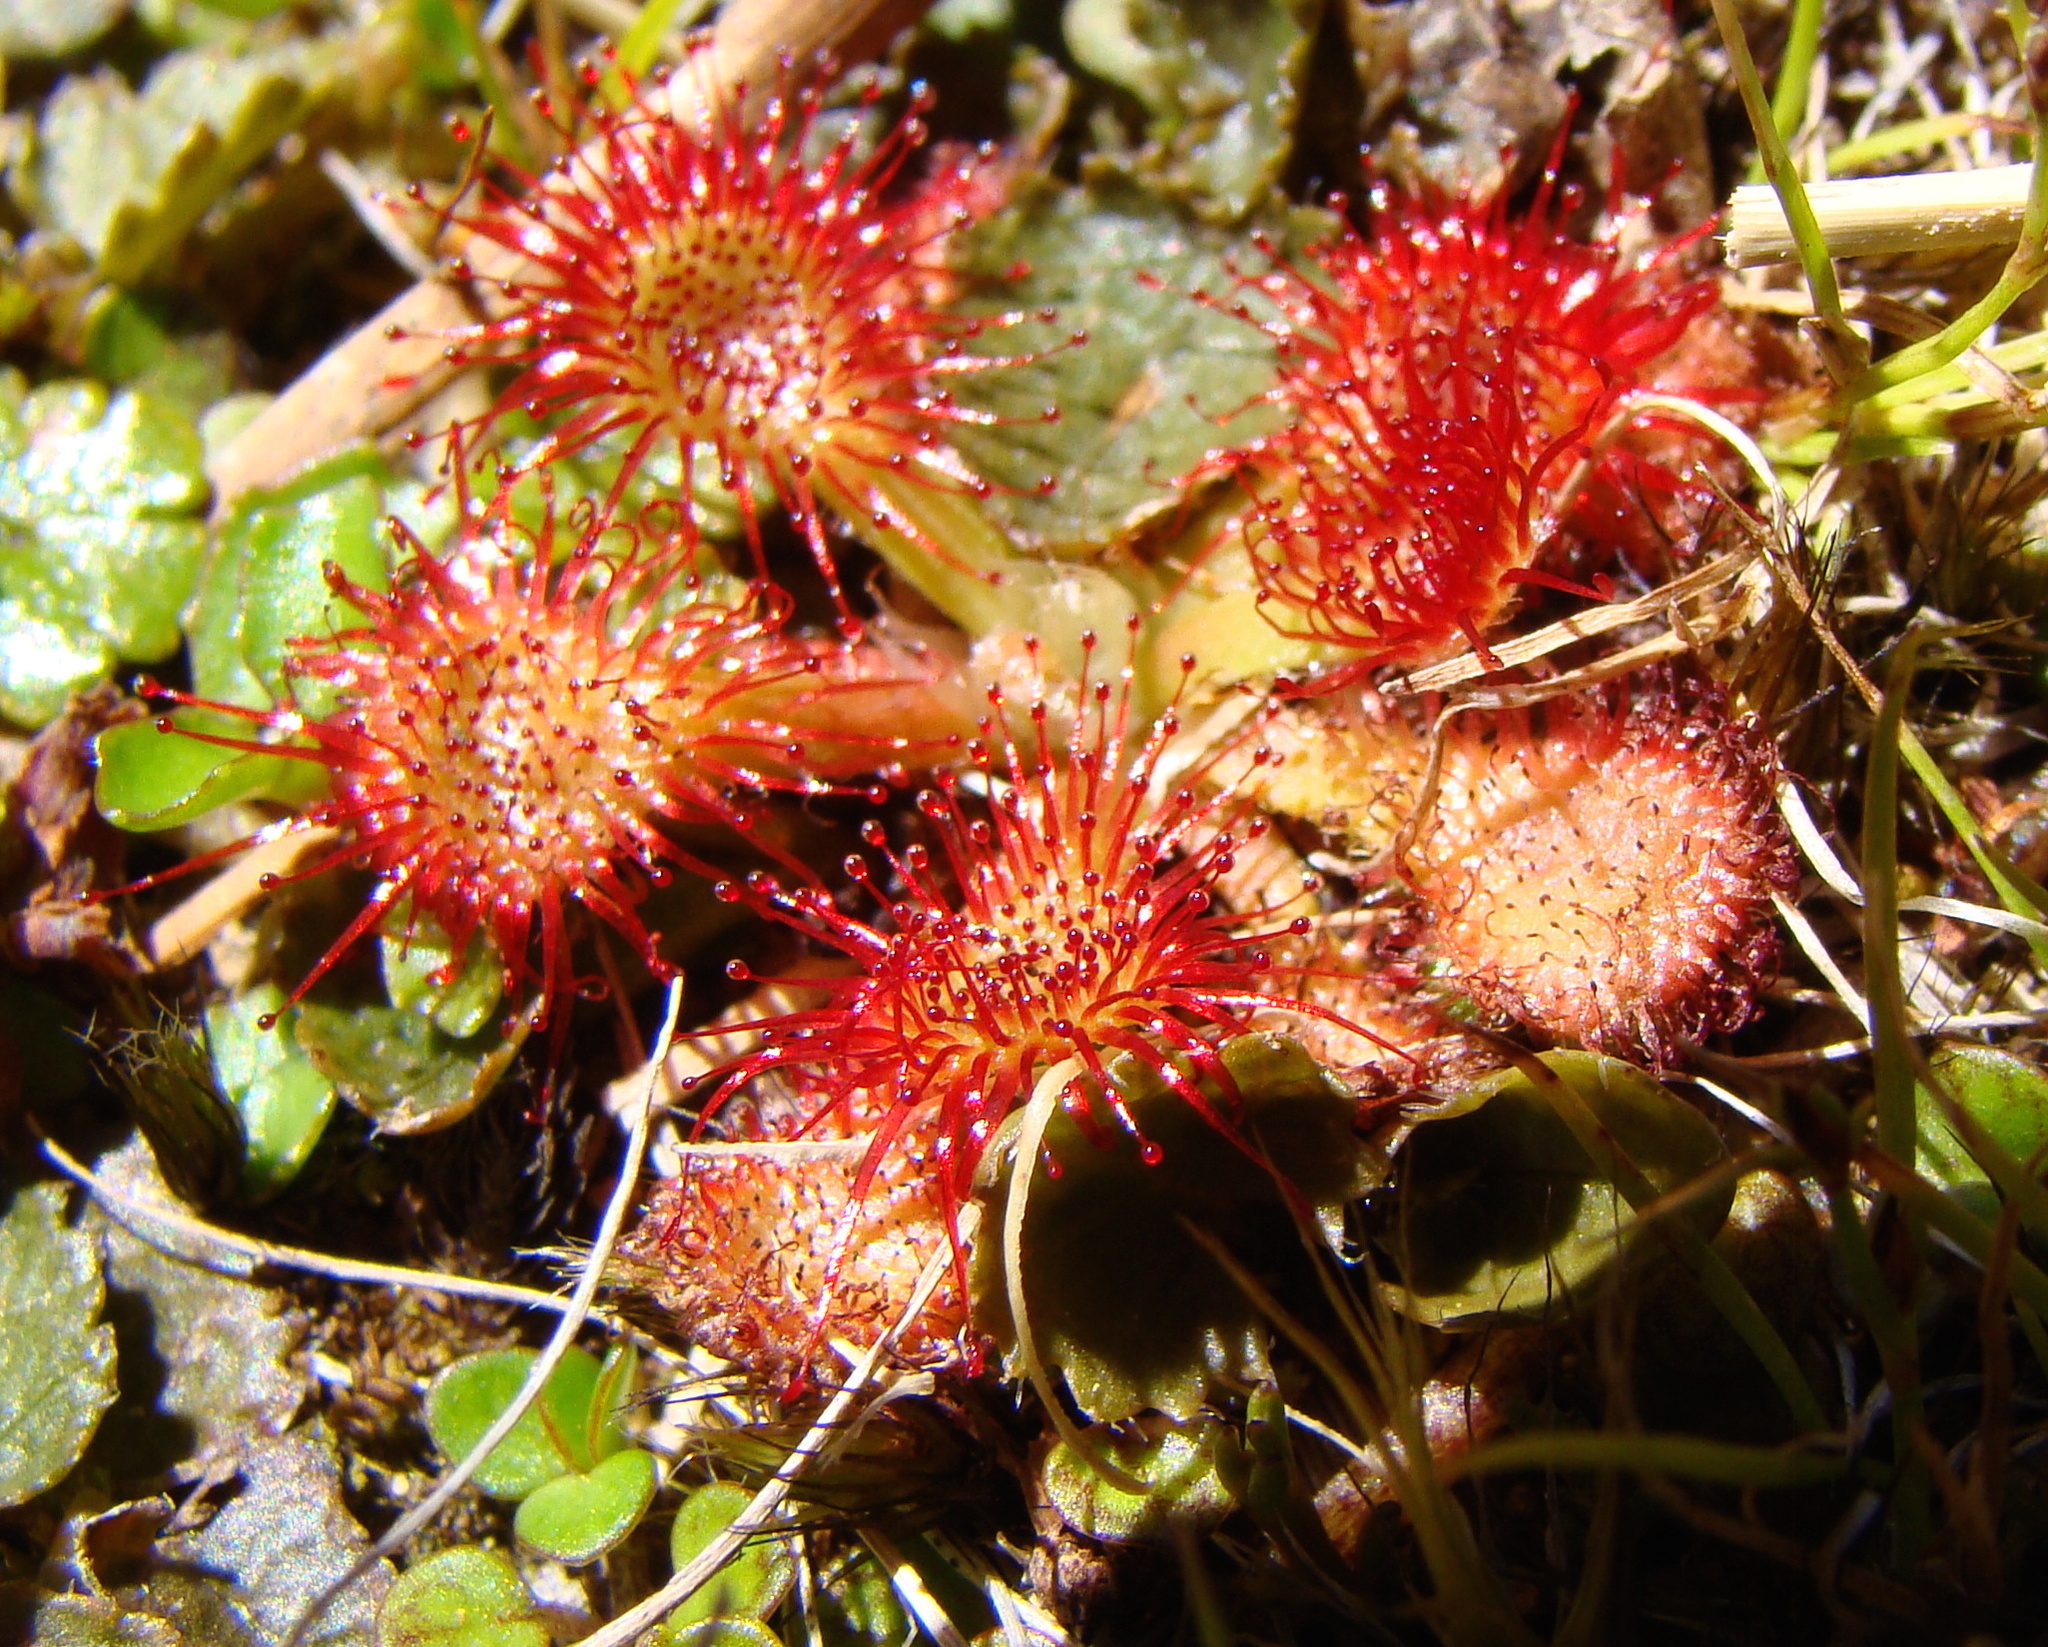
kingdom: Plantae
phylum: Tracheophyta
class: Magnoliopsida
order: Caryophyllales
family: Droseraceae
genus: Drosera
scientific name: Drosera spatulata
